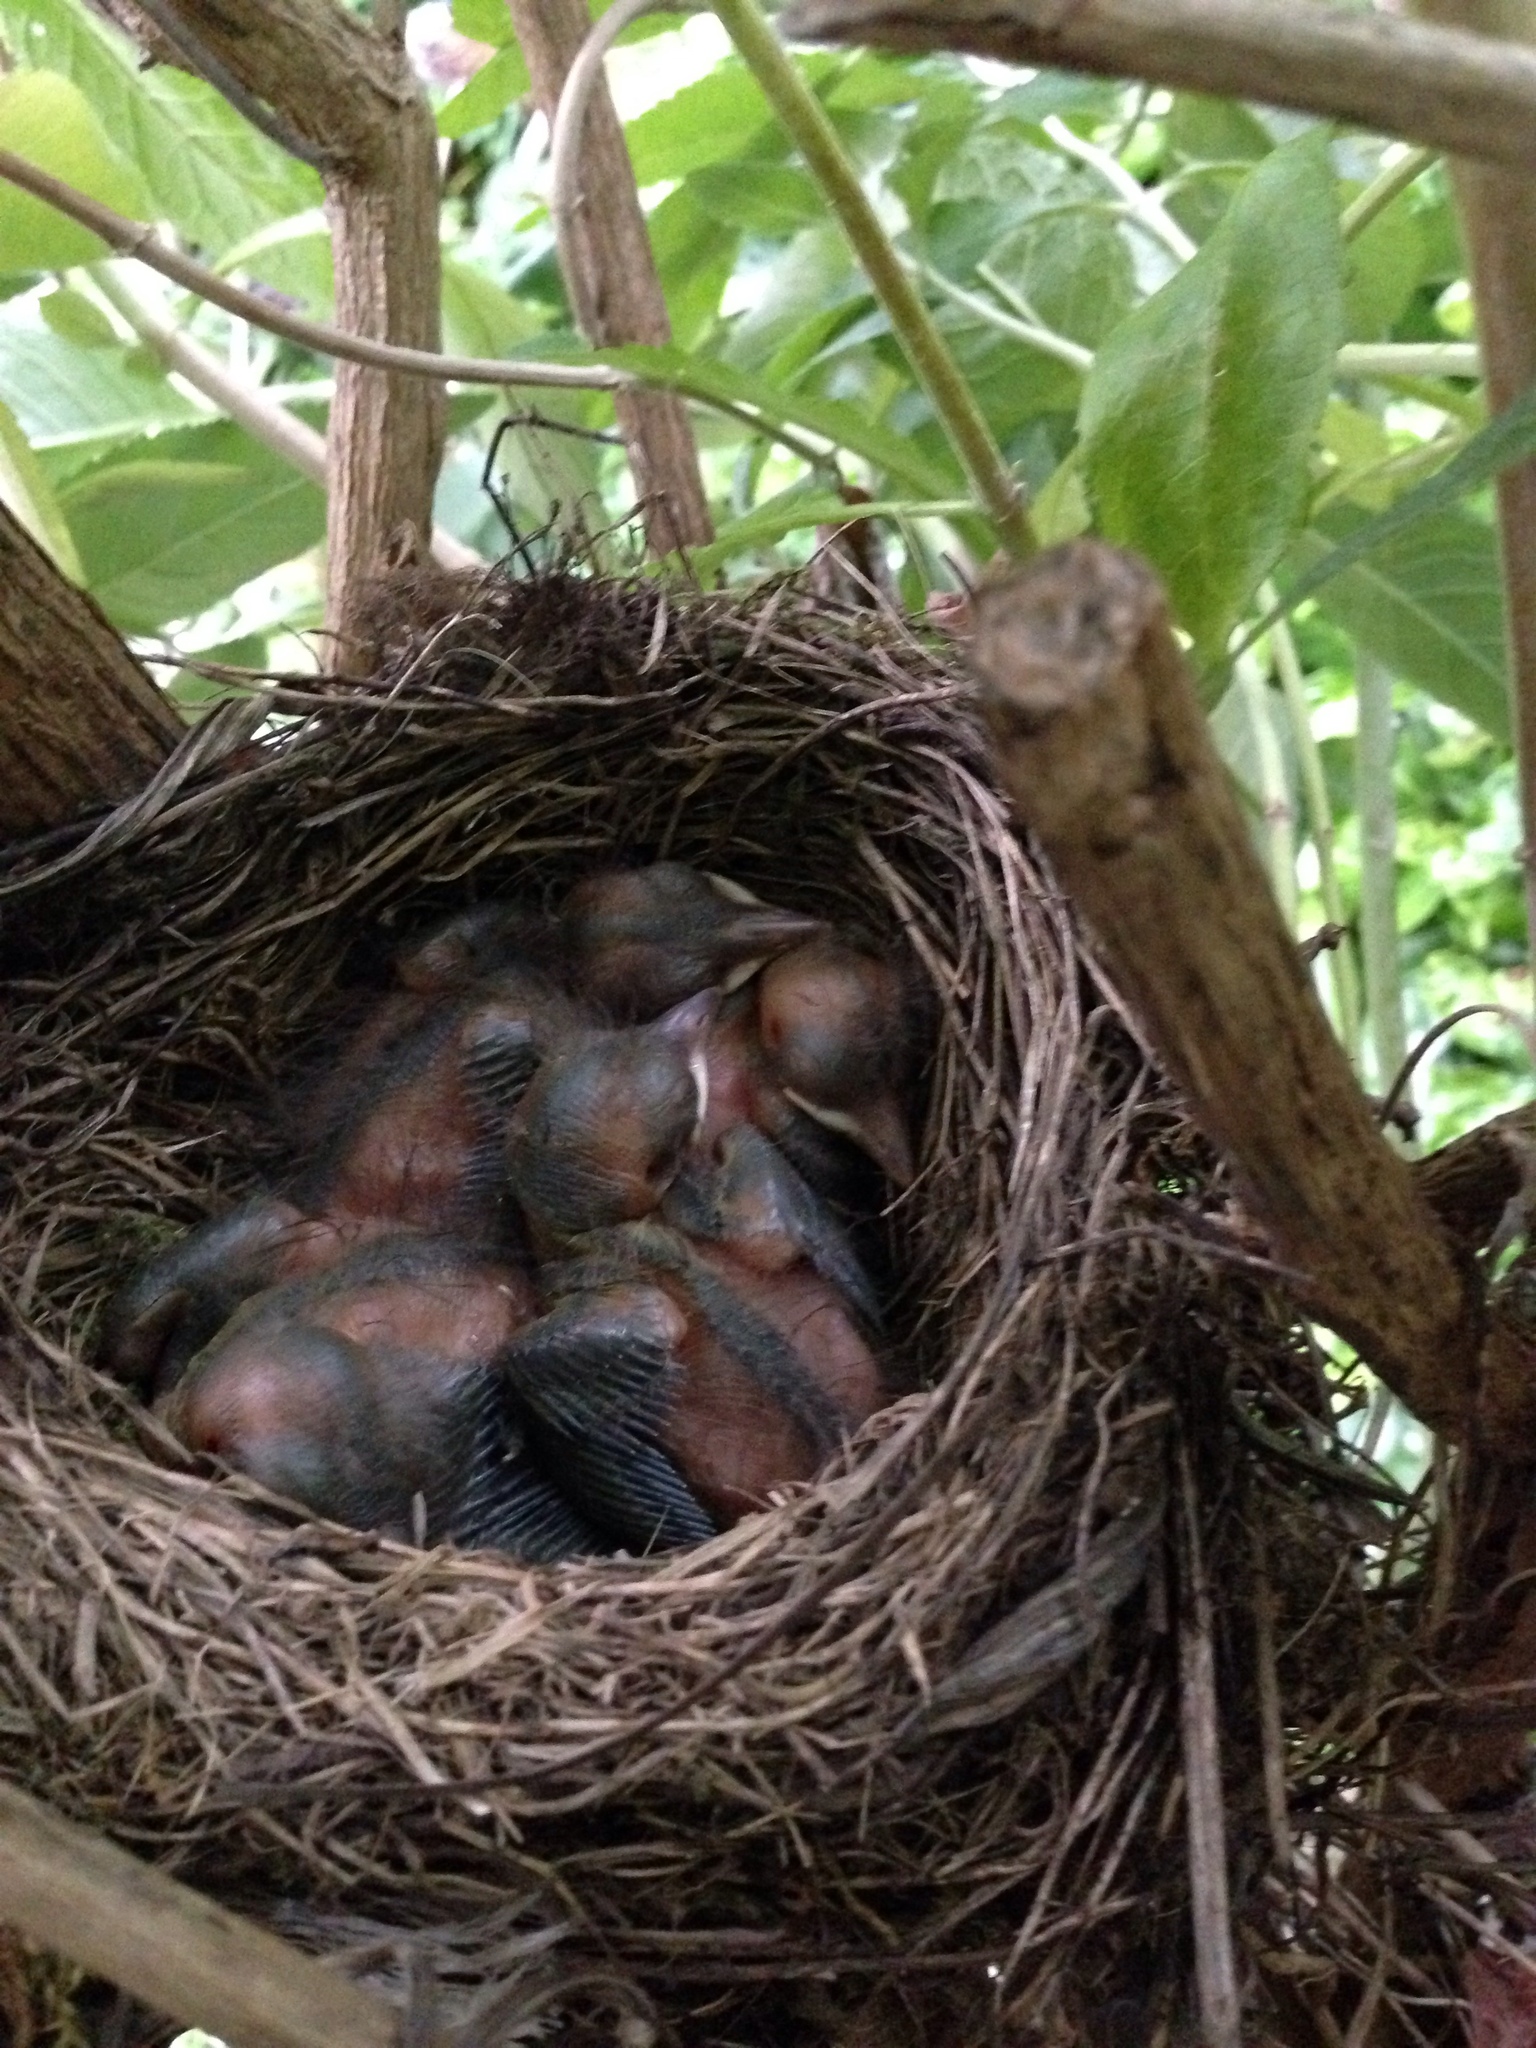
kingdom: Animalia
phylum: Chordata
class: Aves
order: Passeriformes
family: Turdidae
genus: Turdus
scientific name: Turdus merula
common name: Common blackbird
